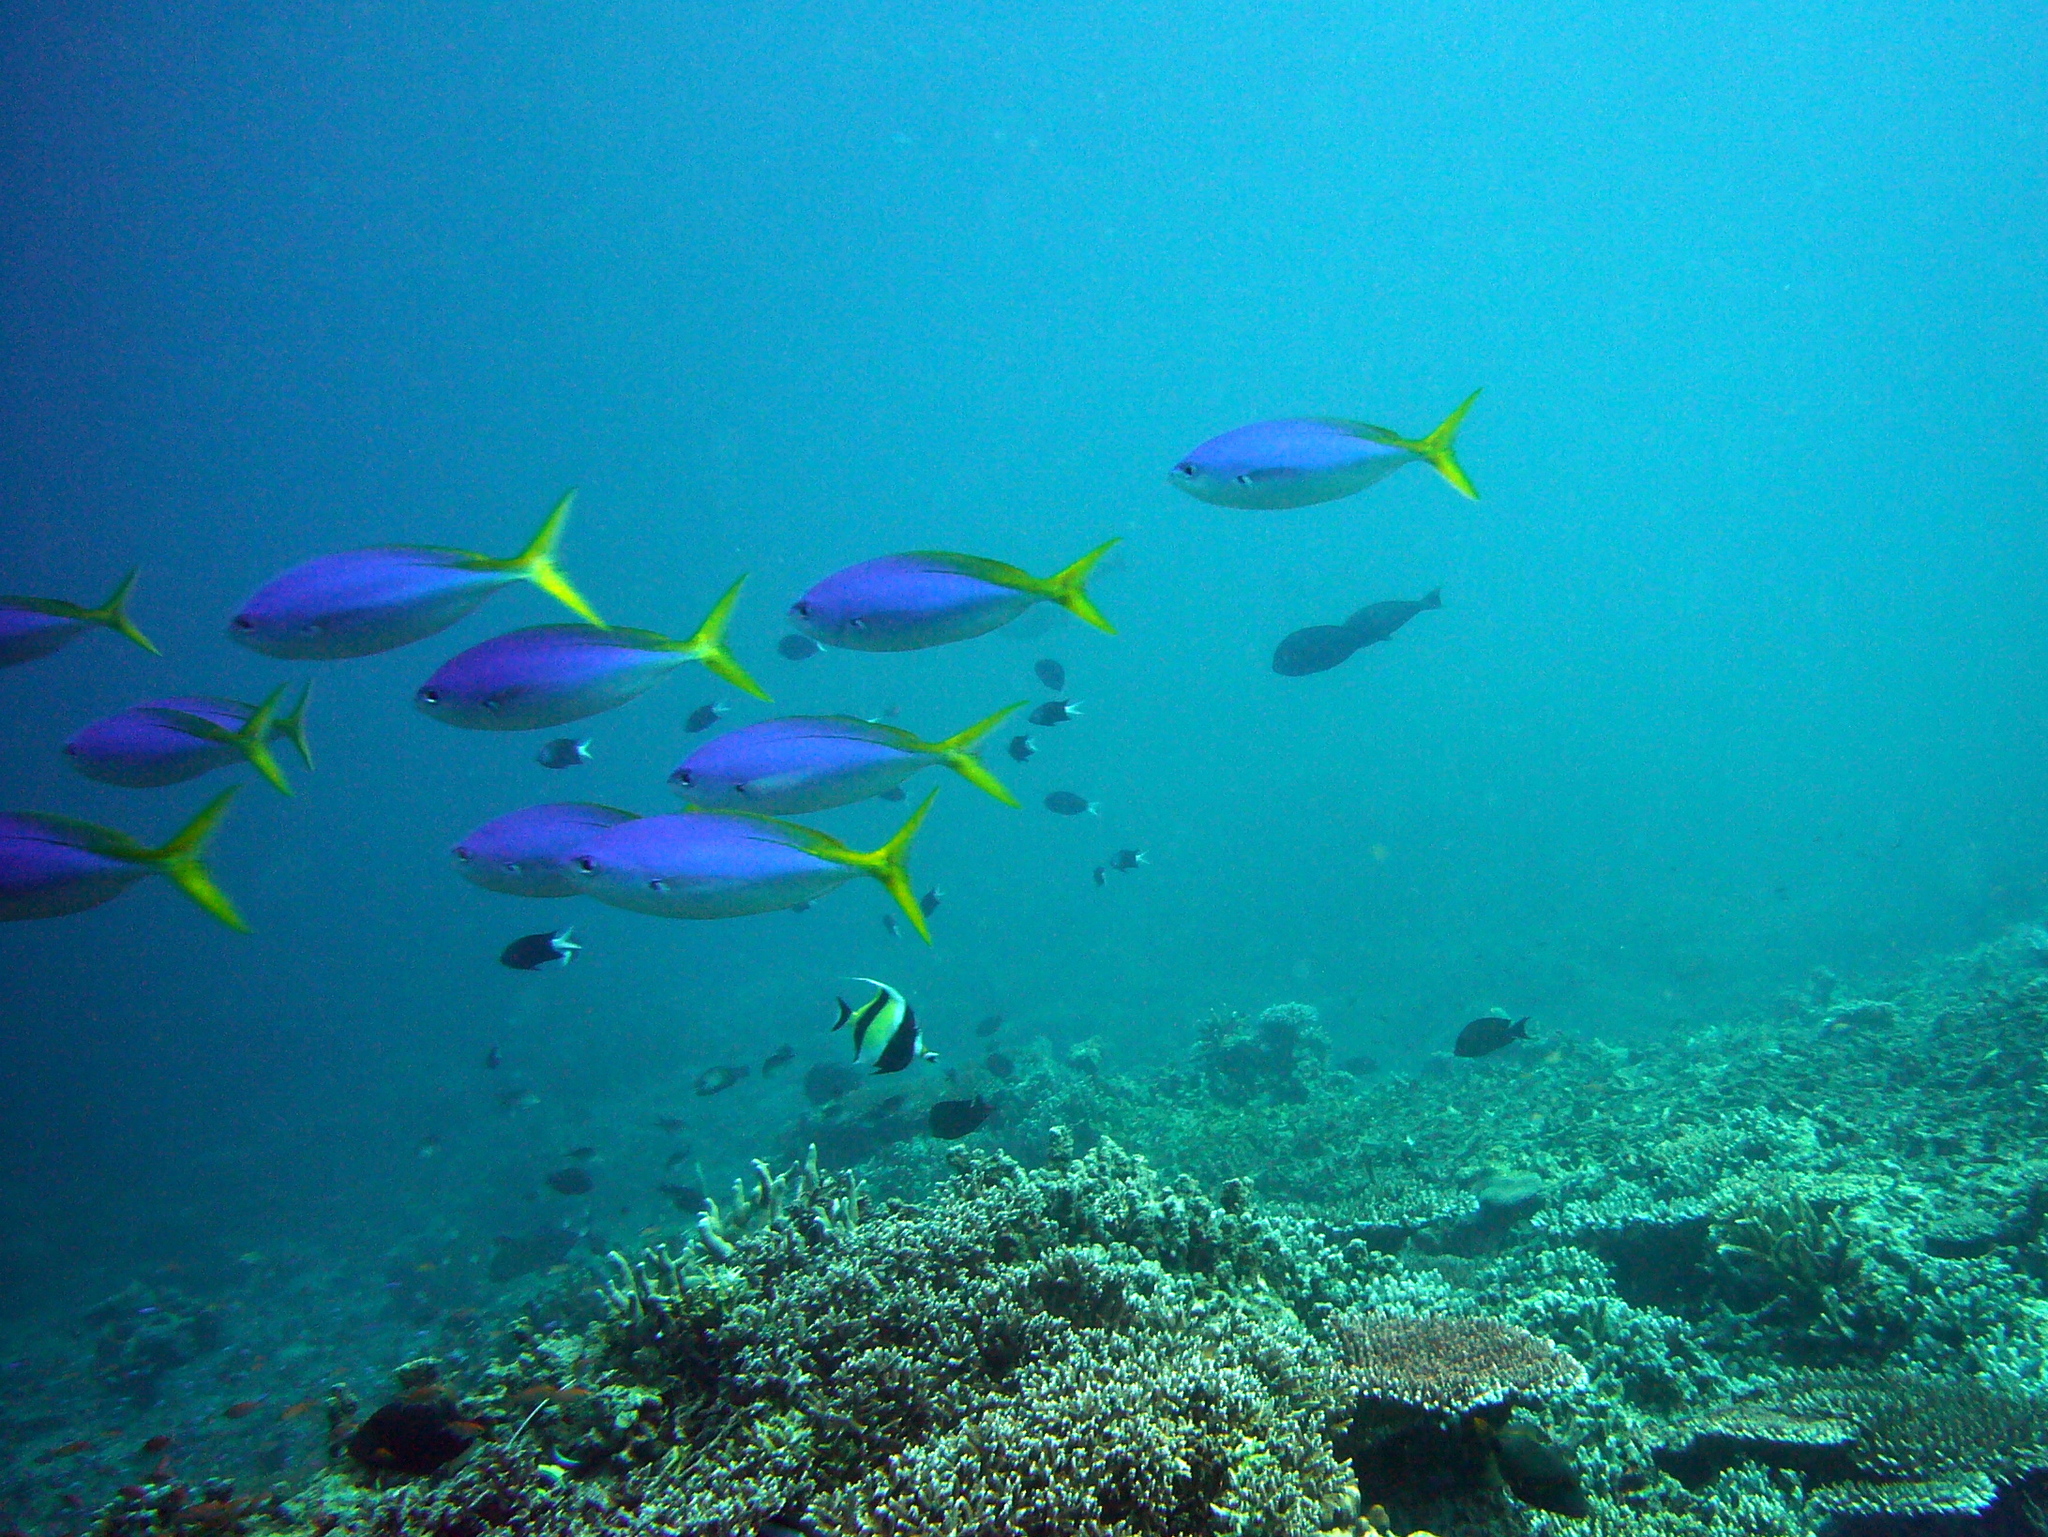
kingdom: Animalia
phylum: Chordata
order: Perciformes
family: Caesionidae
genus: Caesio
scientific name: Caesio teres
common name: Yellow and blueback fusilier
